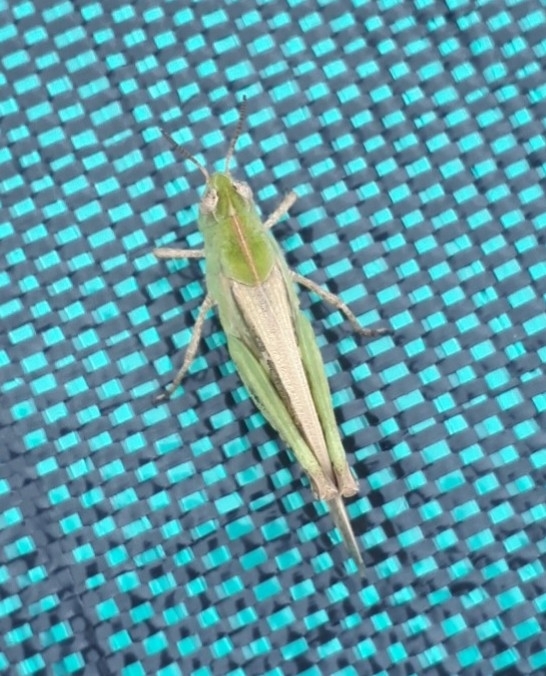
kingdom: Animalia
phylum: Arthropoda
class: Insecta
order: Orthoptera
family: Acrididae
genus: Aiolopus
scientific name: Aiolopus strepens
